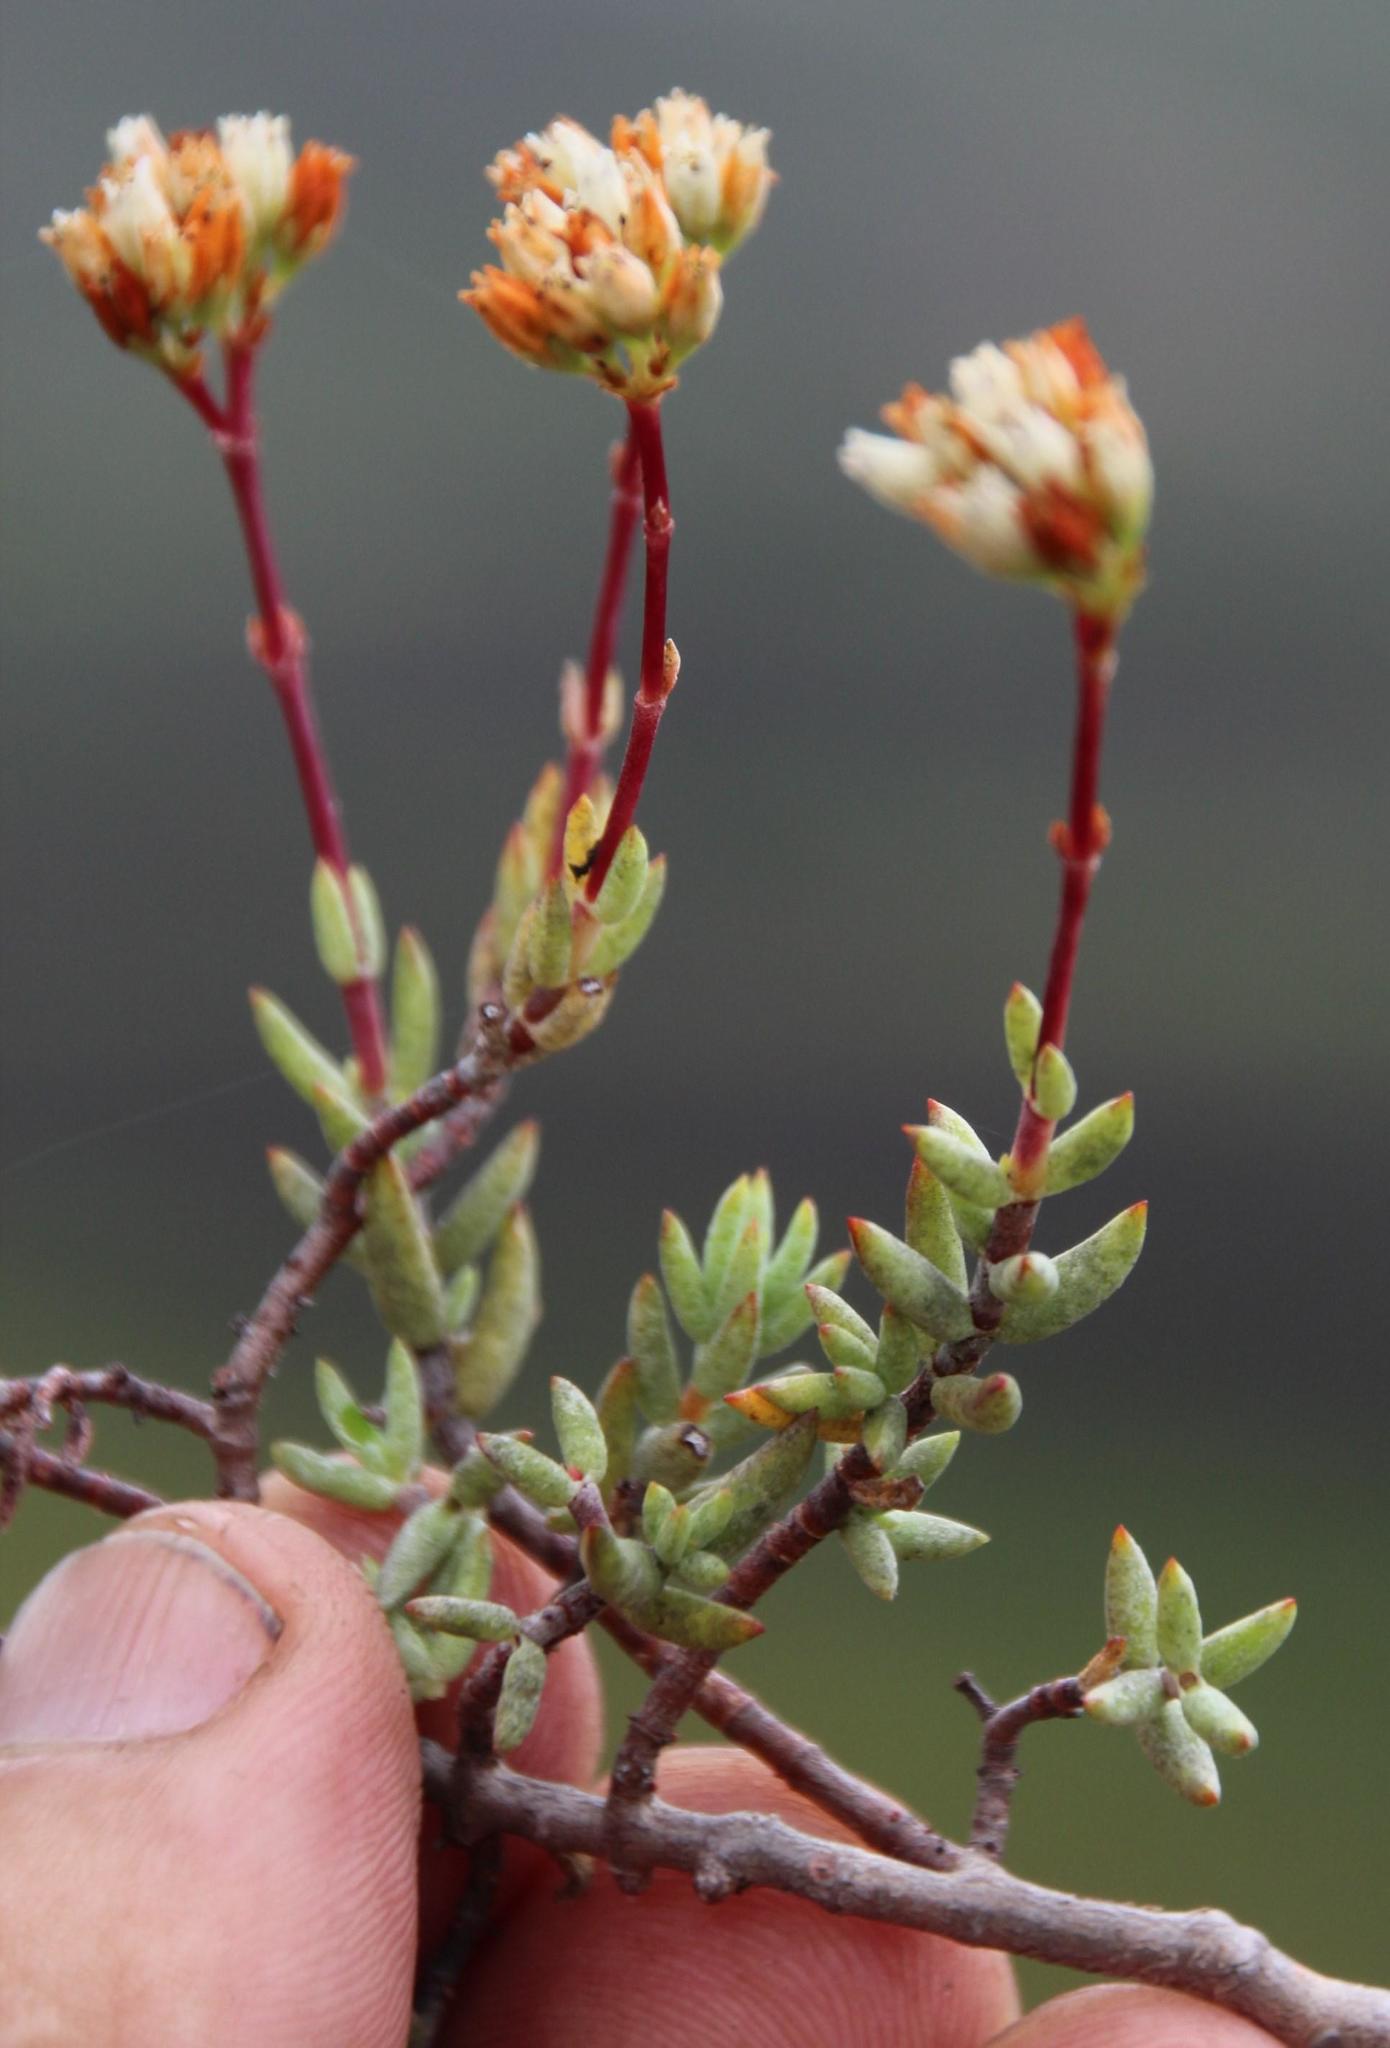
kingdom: Plantae
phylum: Tracheophyta
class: Magnoliopsida
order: Saxifragales
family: Crassulaceae
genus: Crassula
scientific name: Crassula biplanata
